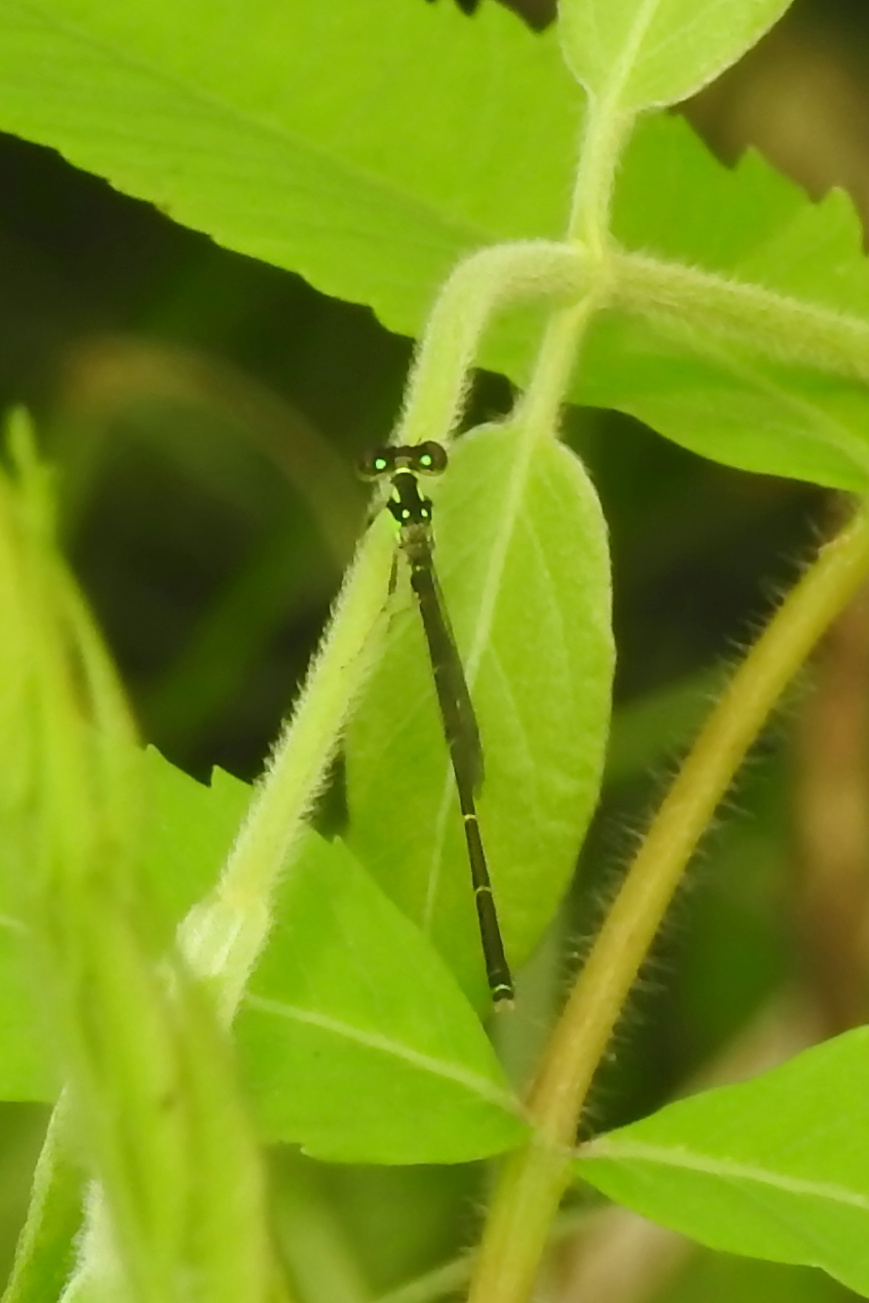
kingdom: Animalia
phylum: Arthropoda
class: Insecta
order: Odonata
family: Coenagrionidae
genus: Ischnura
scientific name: Ischnura posita
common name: Fragile forktail
